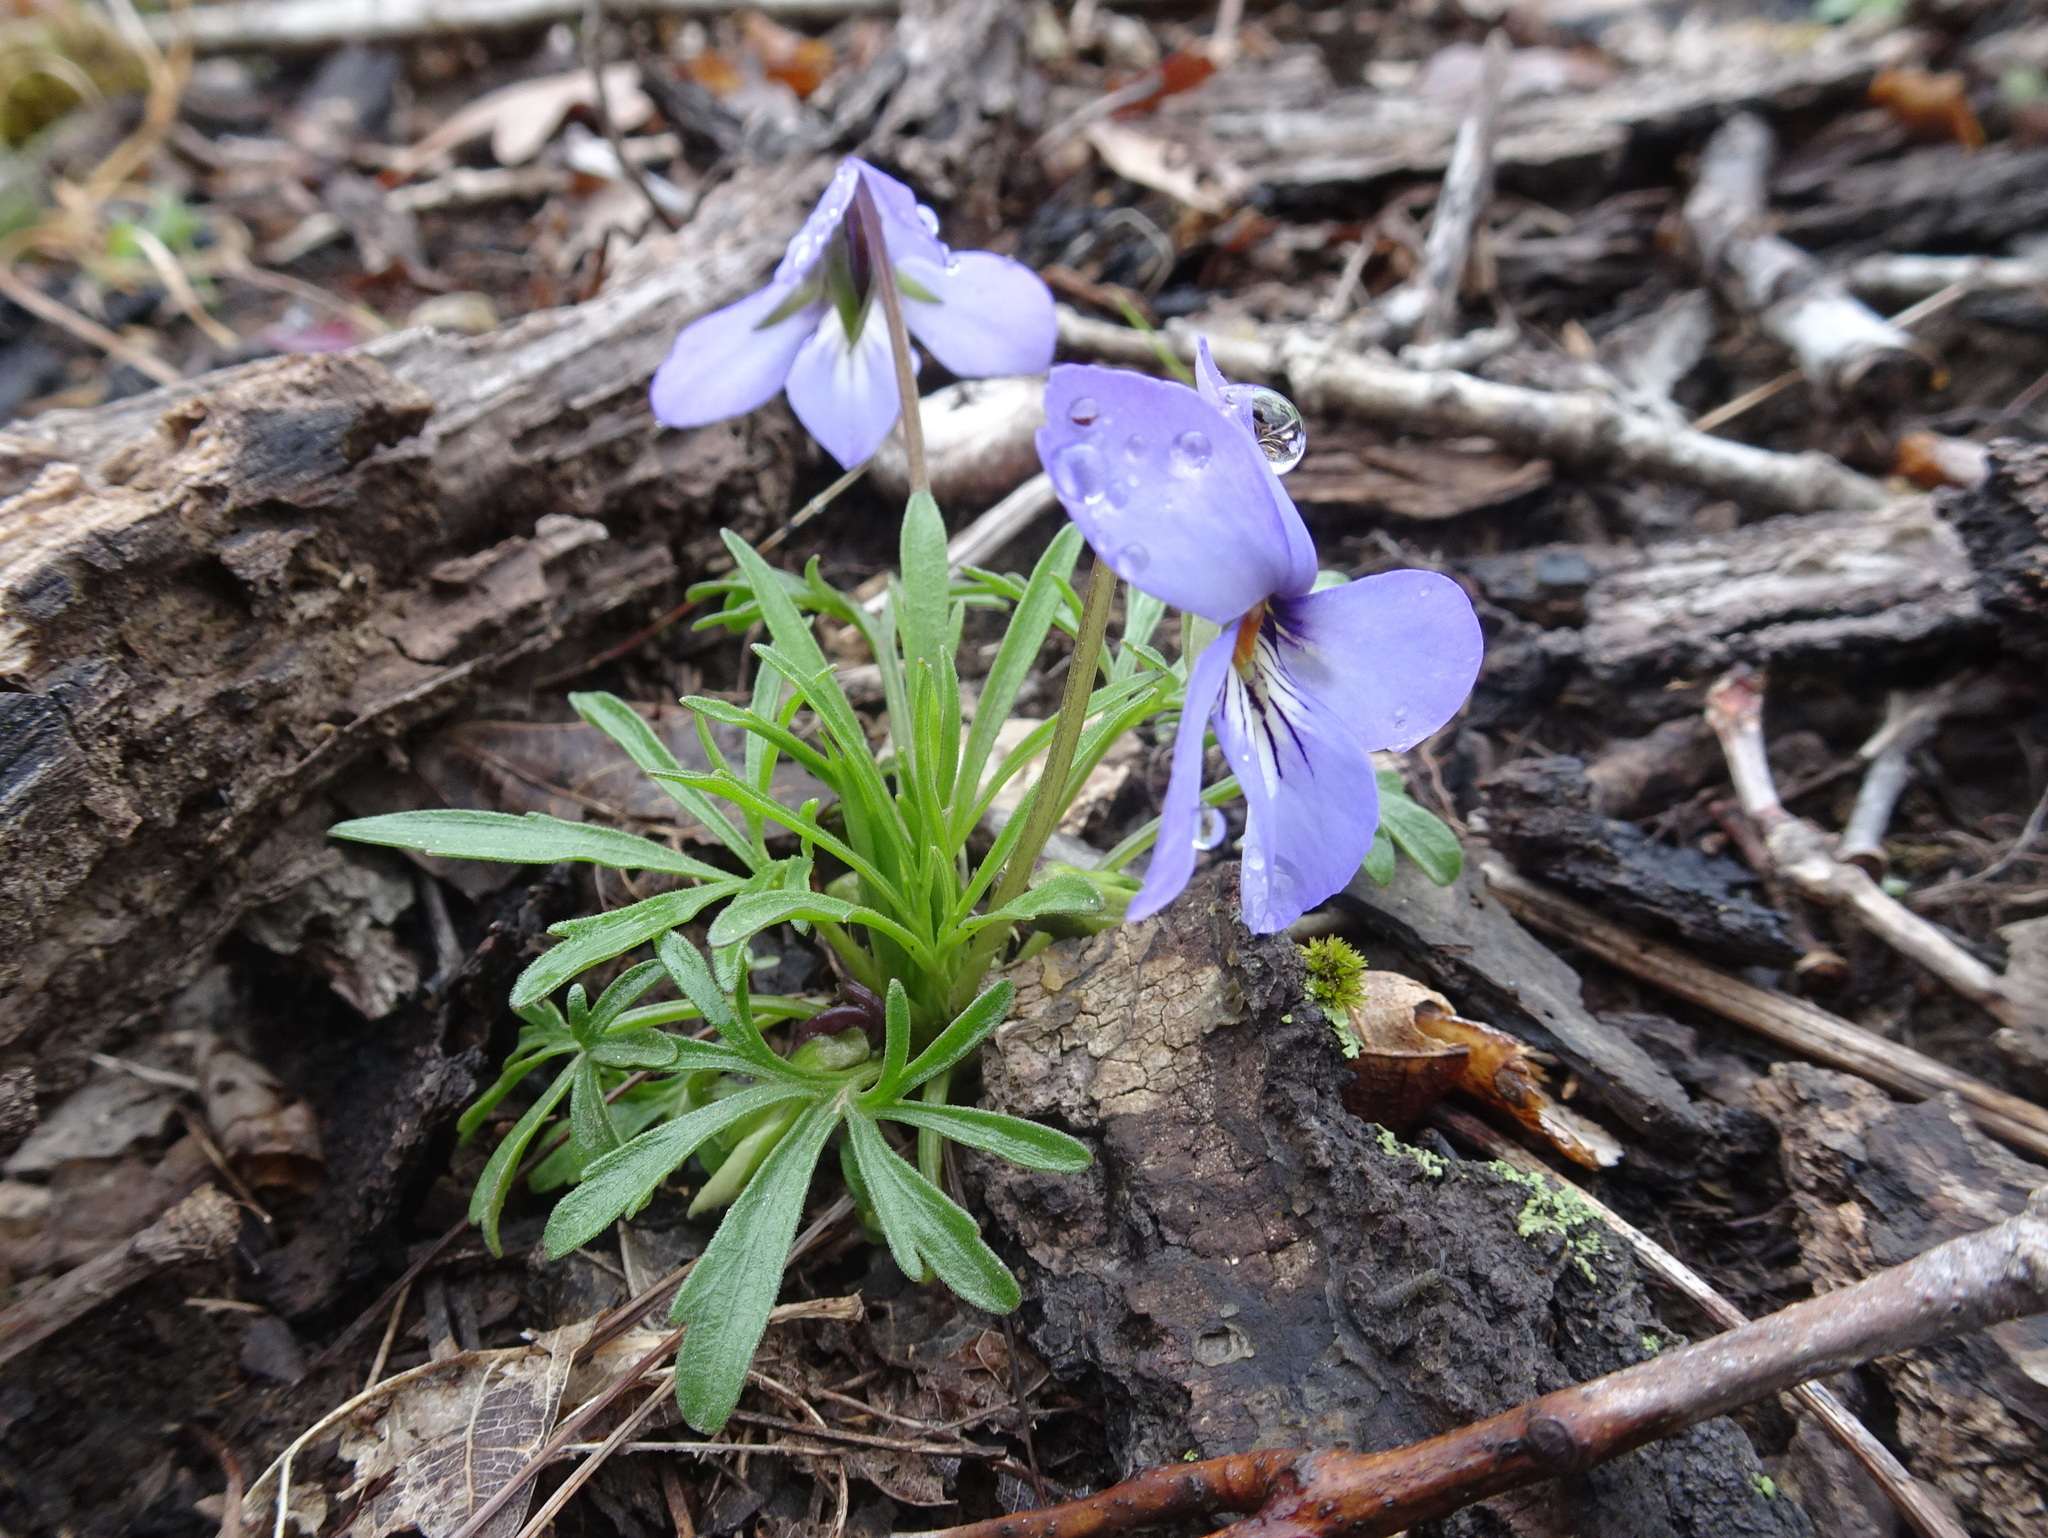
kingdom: Plantae
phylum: Tracheophyta
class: Magnoliopsida
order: Malpighiales
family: Violaceae
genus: Viola
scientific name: Viola pedata
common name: Pansy violet
